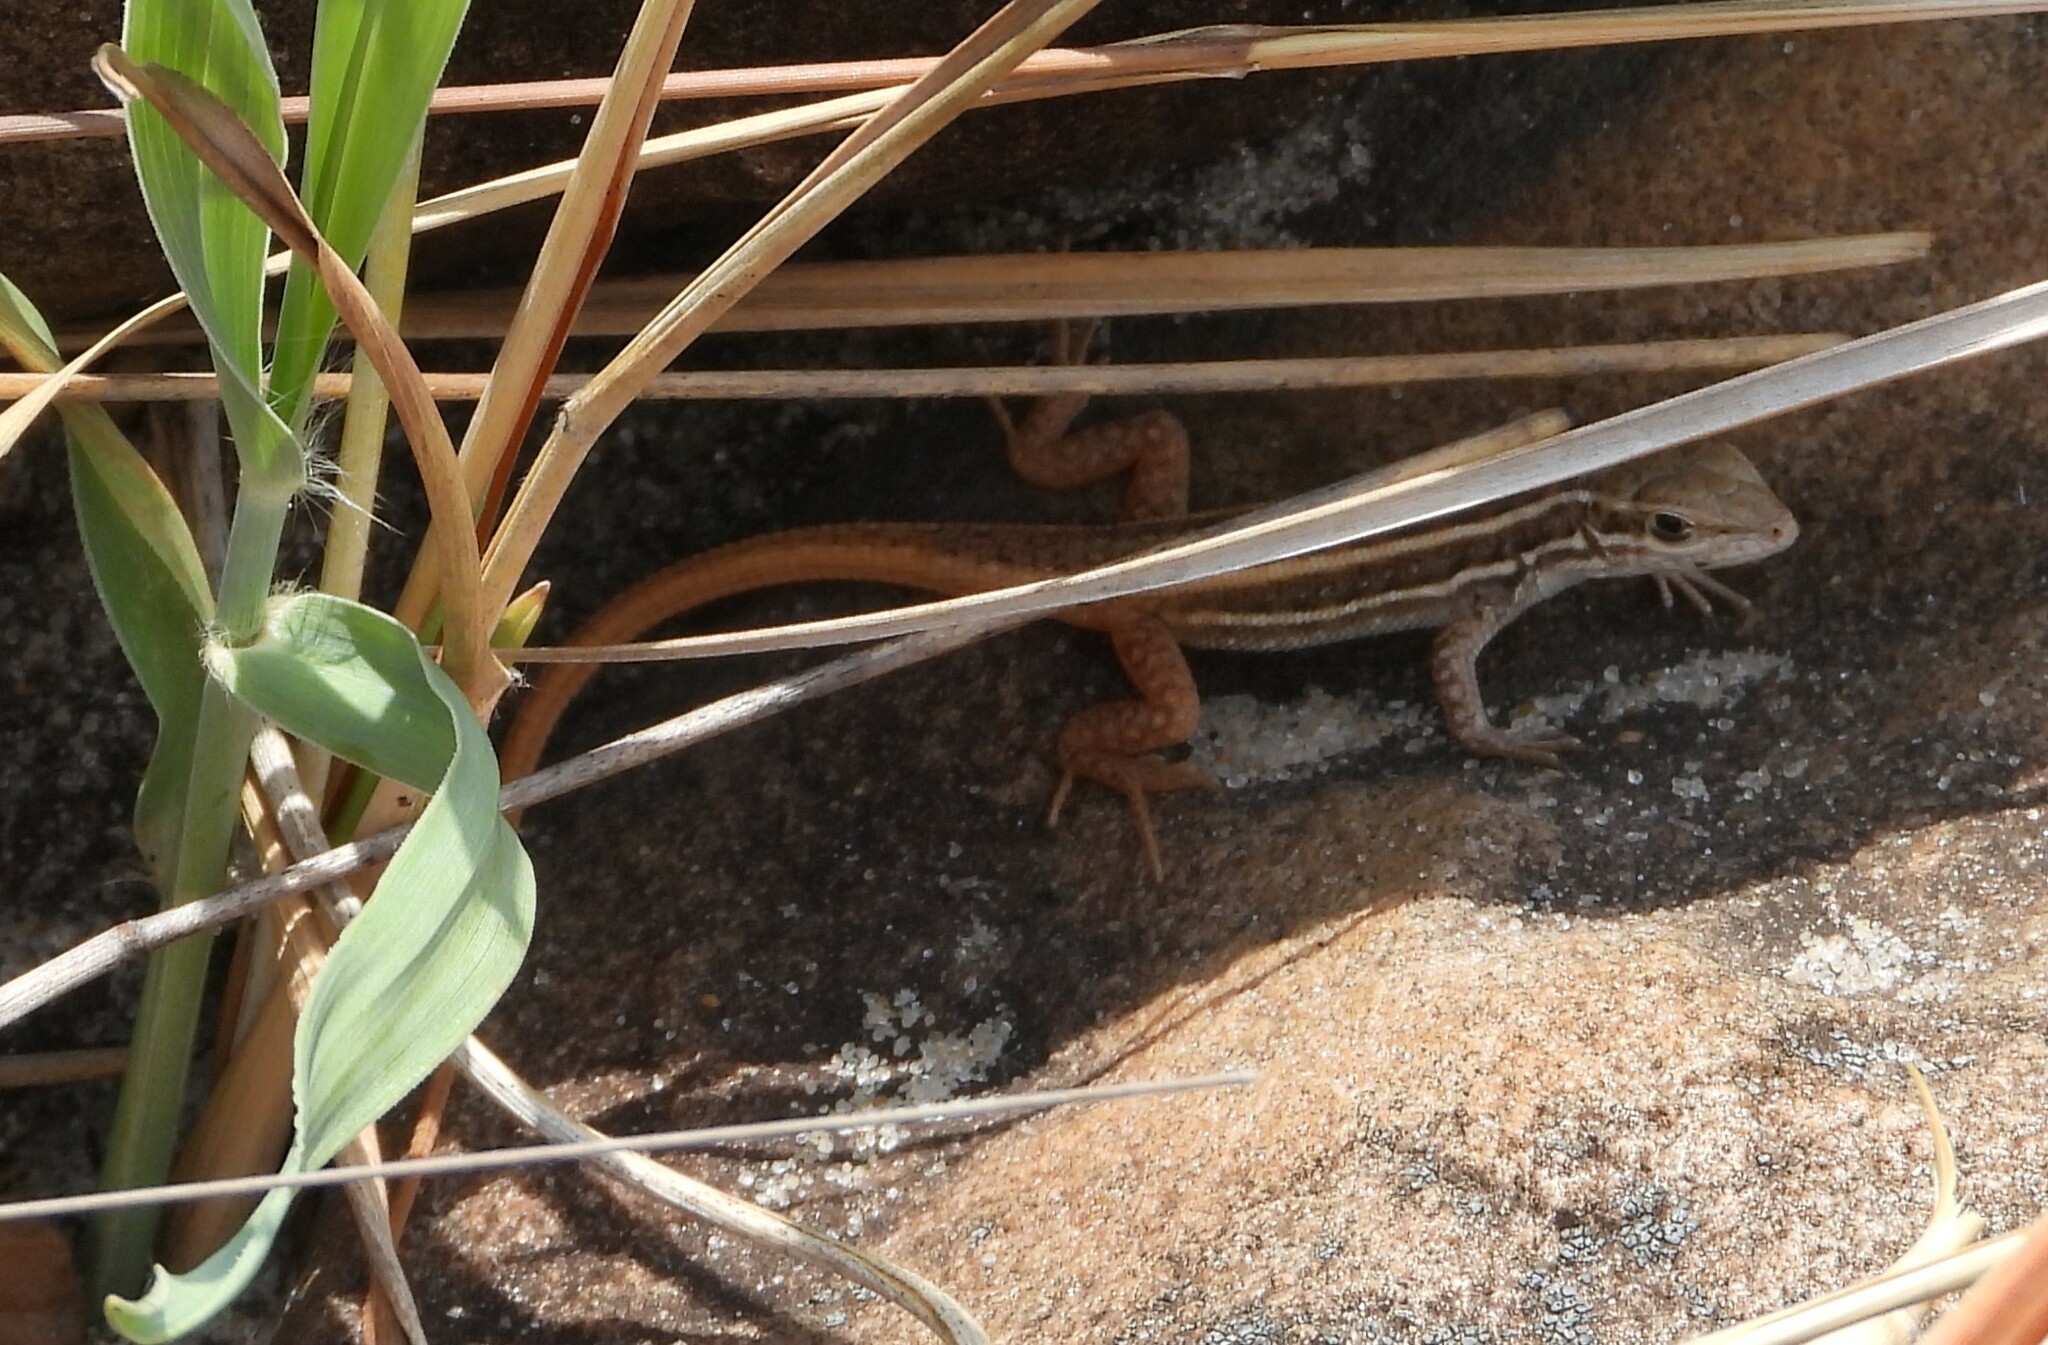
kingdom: Animalia
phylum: Chordata
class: Squamata
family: Lacertidae
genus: Meroles
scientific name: Meroles squamulosus
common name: Common desert lizard
